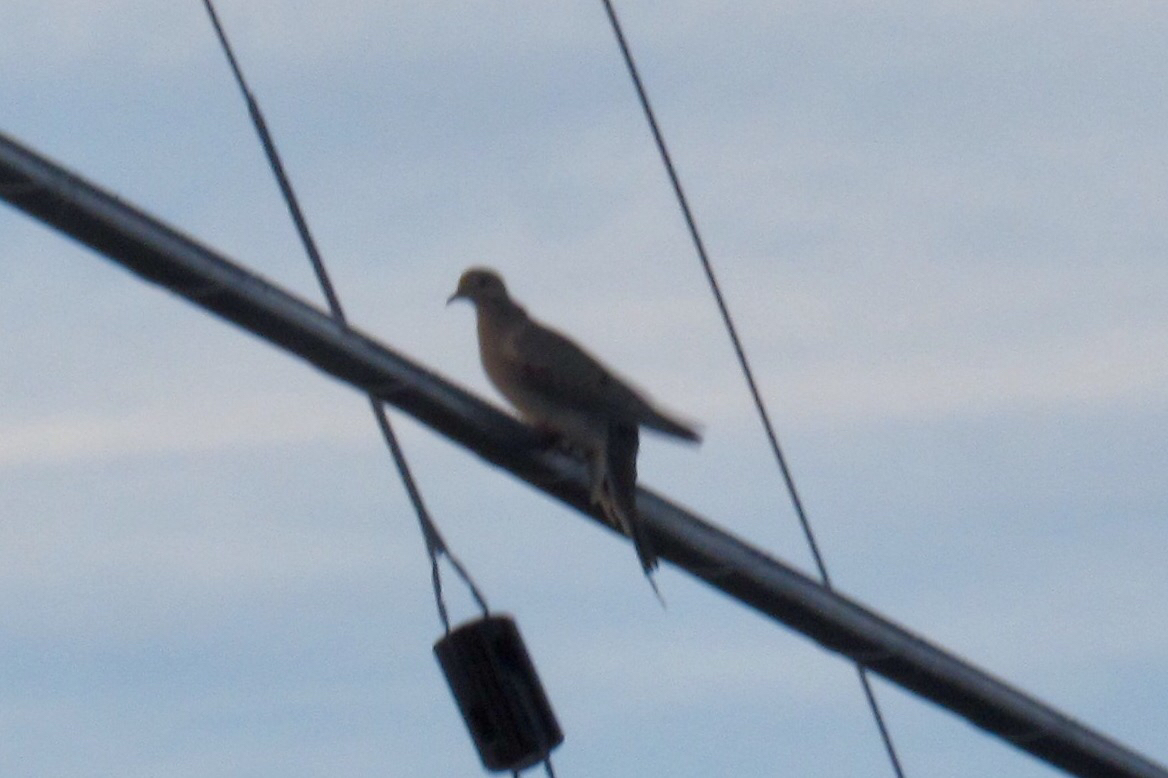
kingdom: Animalia
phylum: Chordata
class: Aves
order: Columbiformes
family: Columbidae
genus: Zenaida
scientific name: Zenaida macroura
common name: Mourning dove
